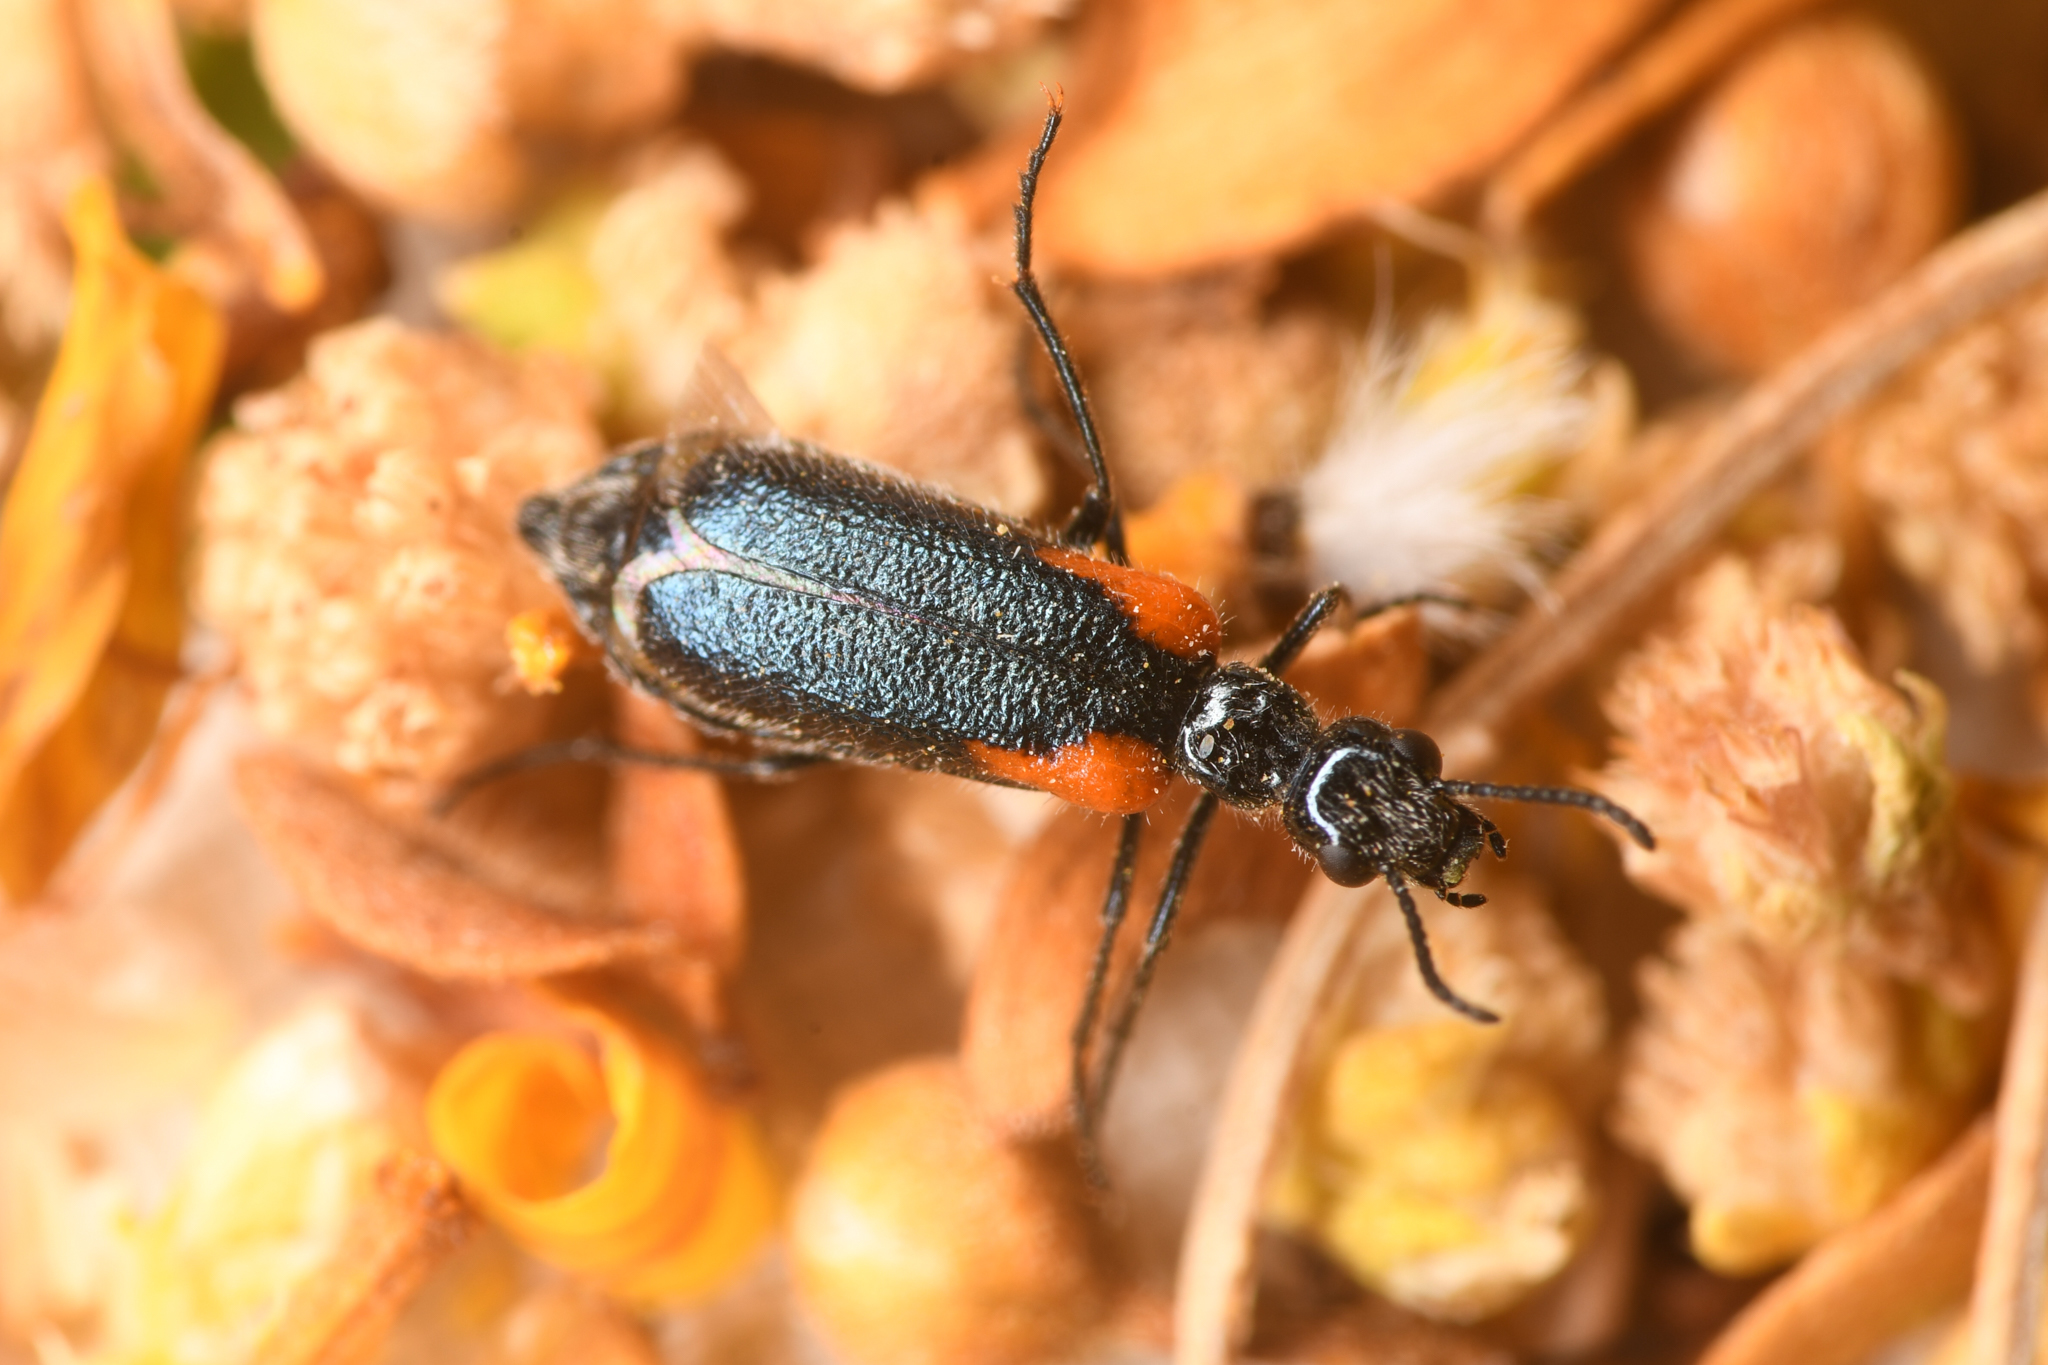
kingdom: Animalia
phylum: Arthropoda
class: Insecta
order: Coleoptera
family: Meloidae
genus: Eupompha
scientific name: Eupompha elegans
